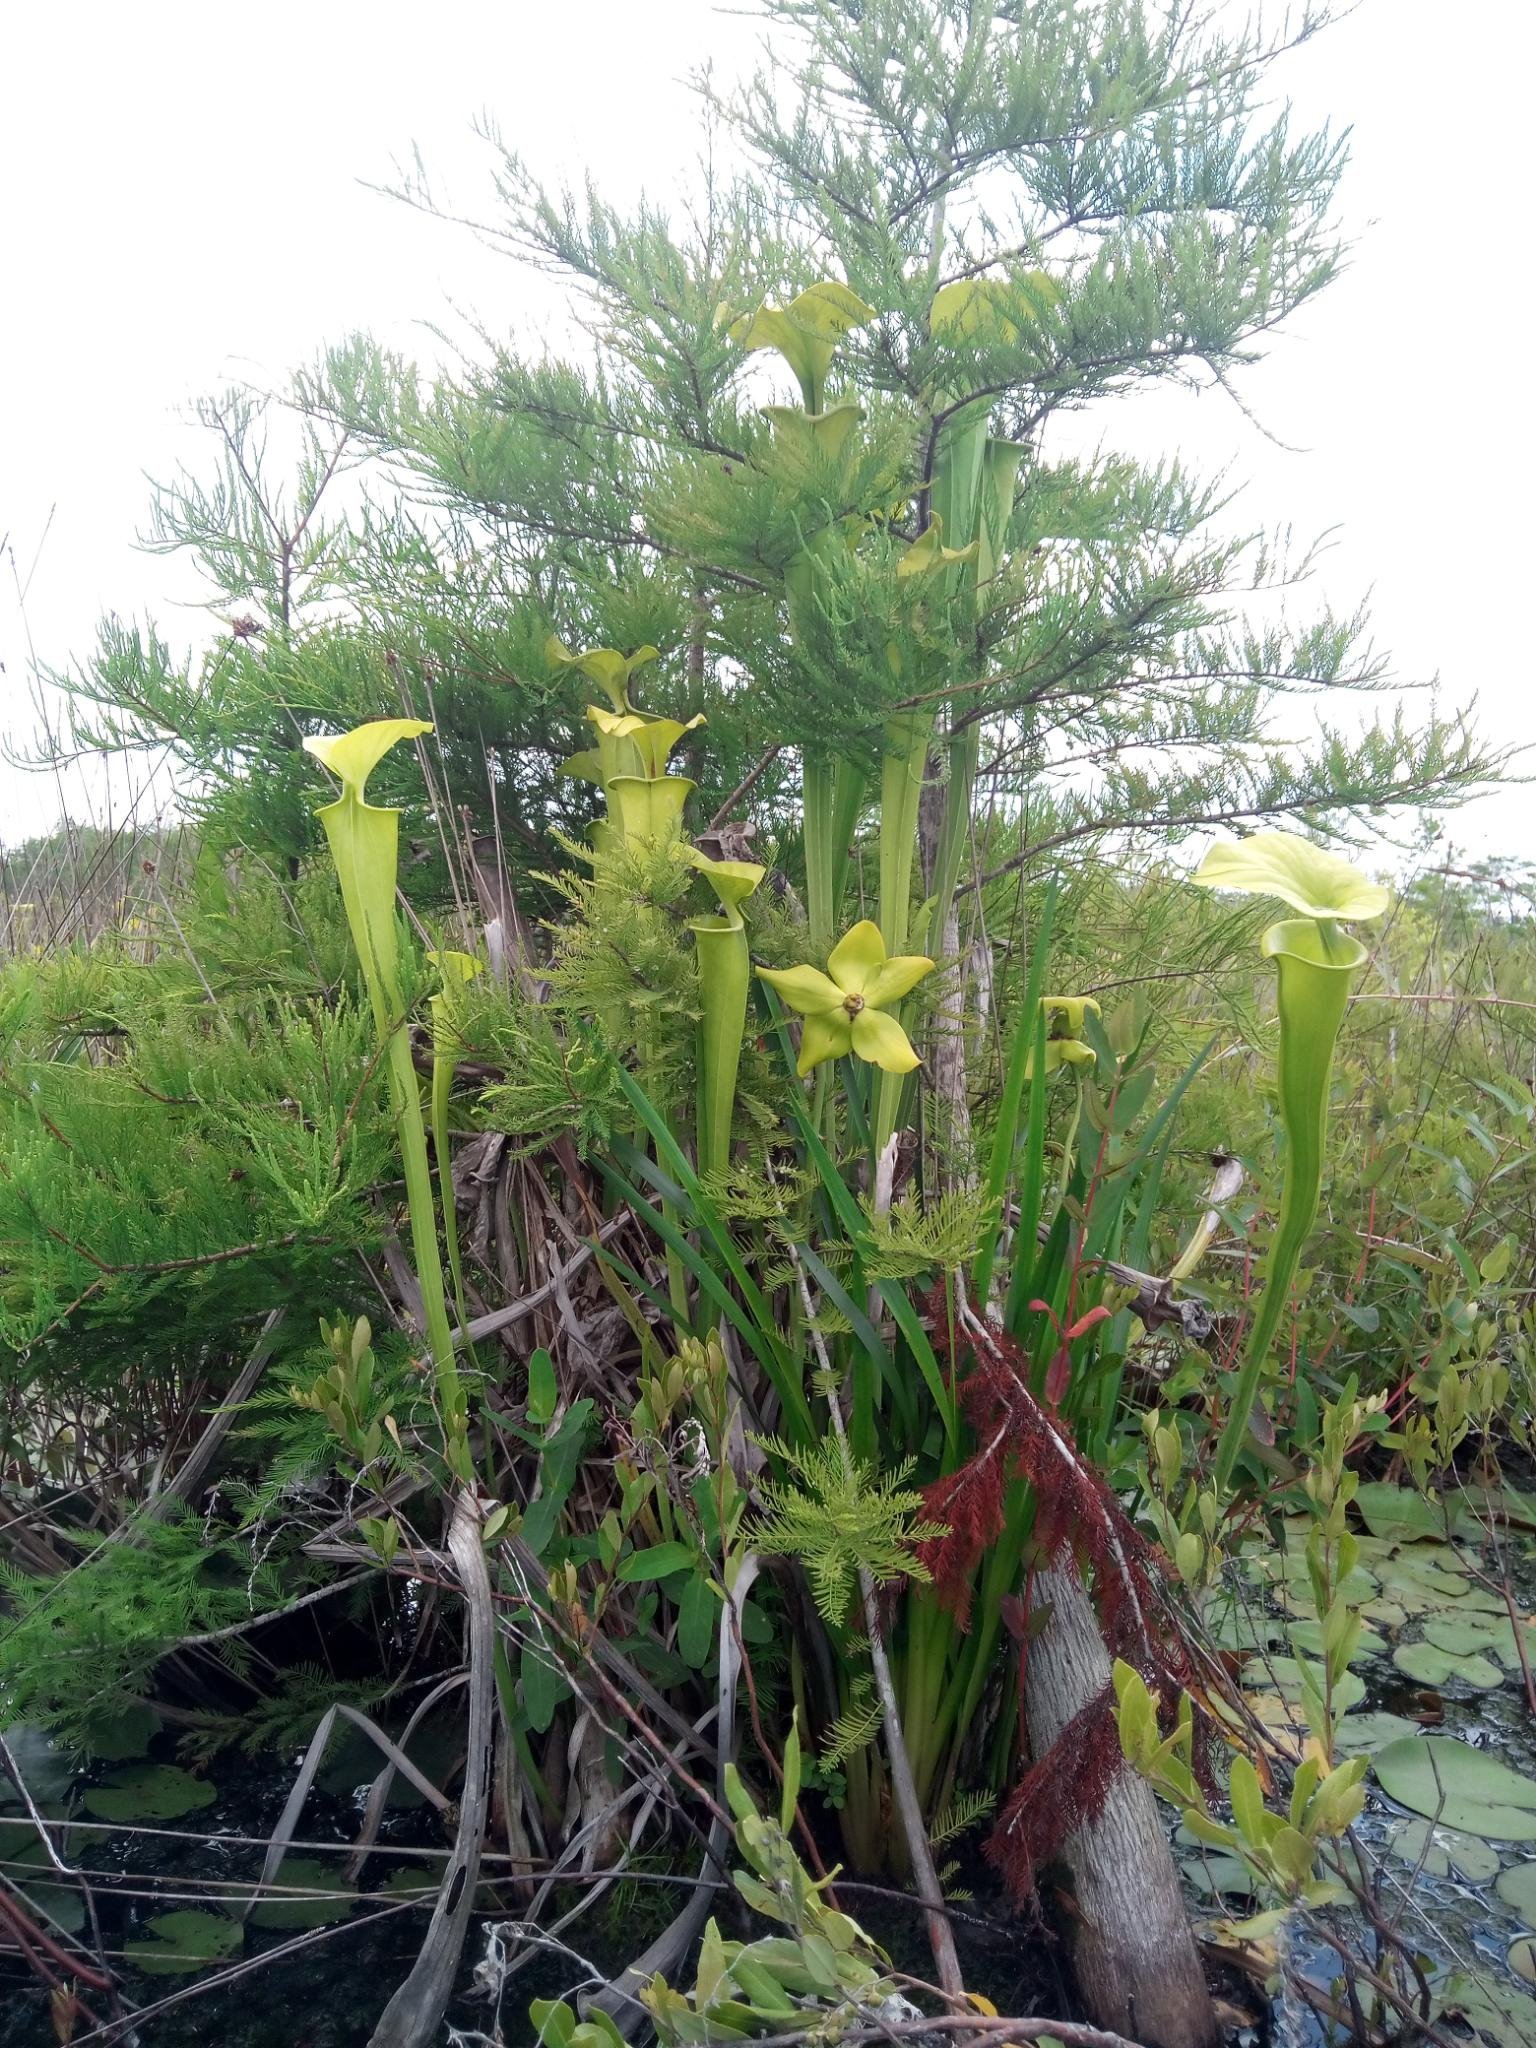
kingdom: Plantae
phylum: Tracheophyta
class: Magnoliopsida
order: Ericales
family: Sarraceniaceae
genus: Sarracenia
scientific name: Sarracenia flava
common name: Trumpets
